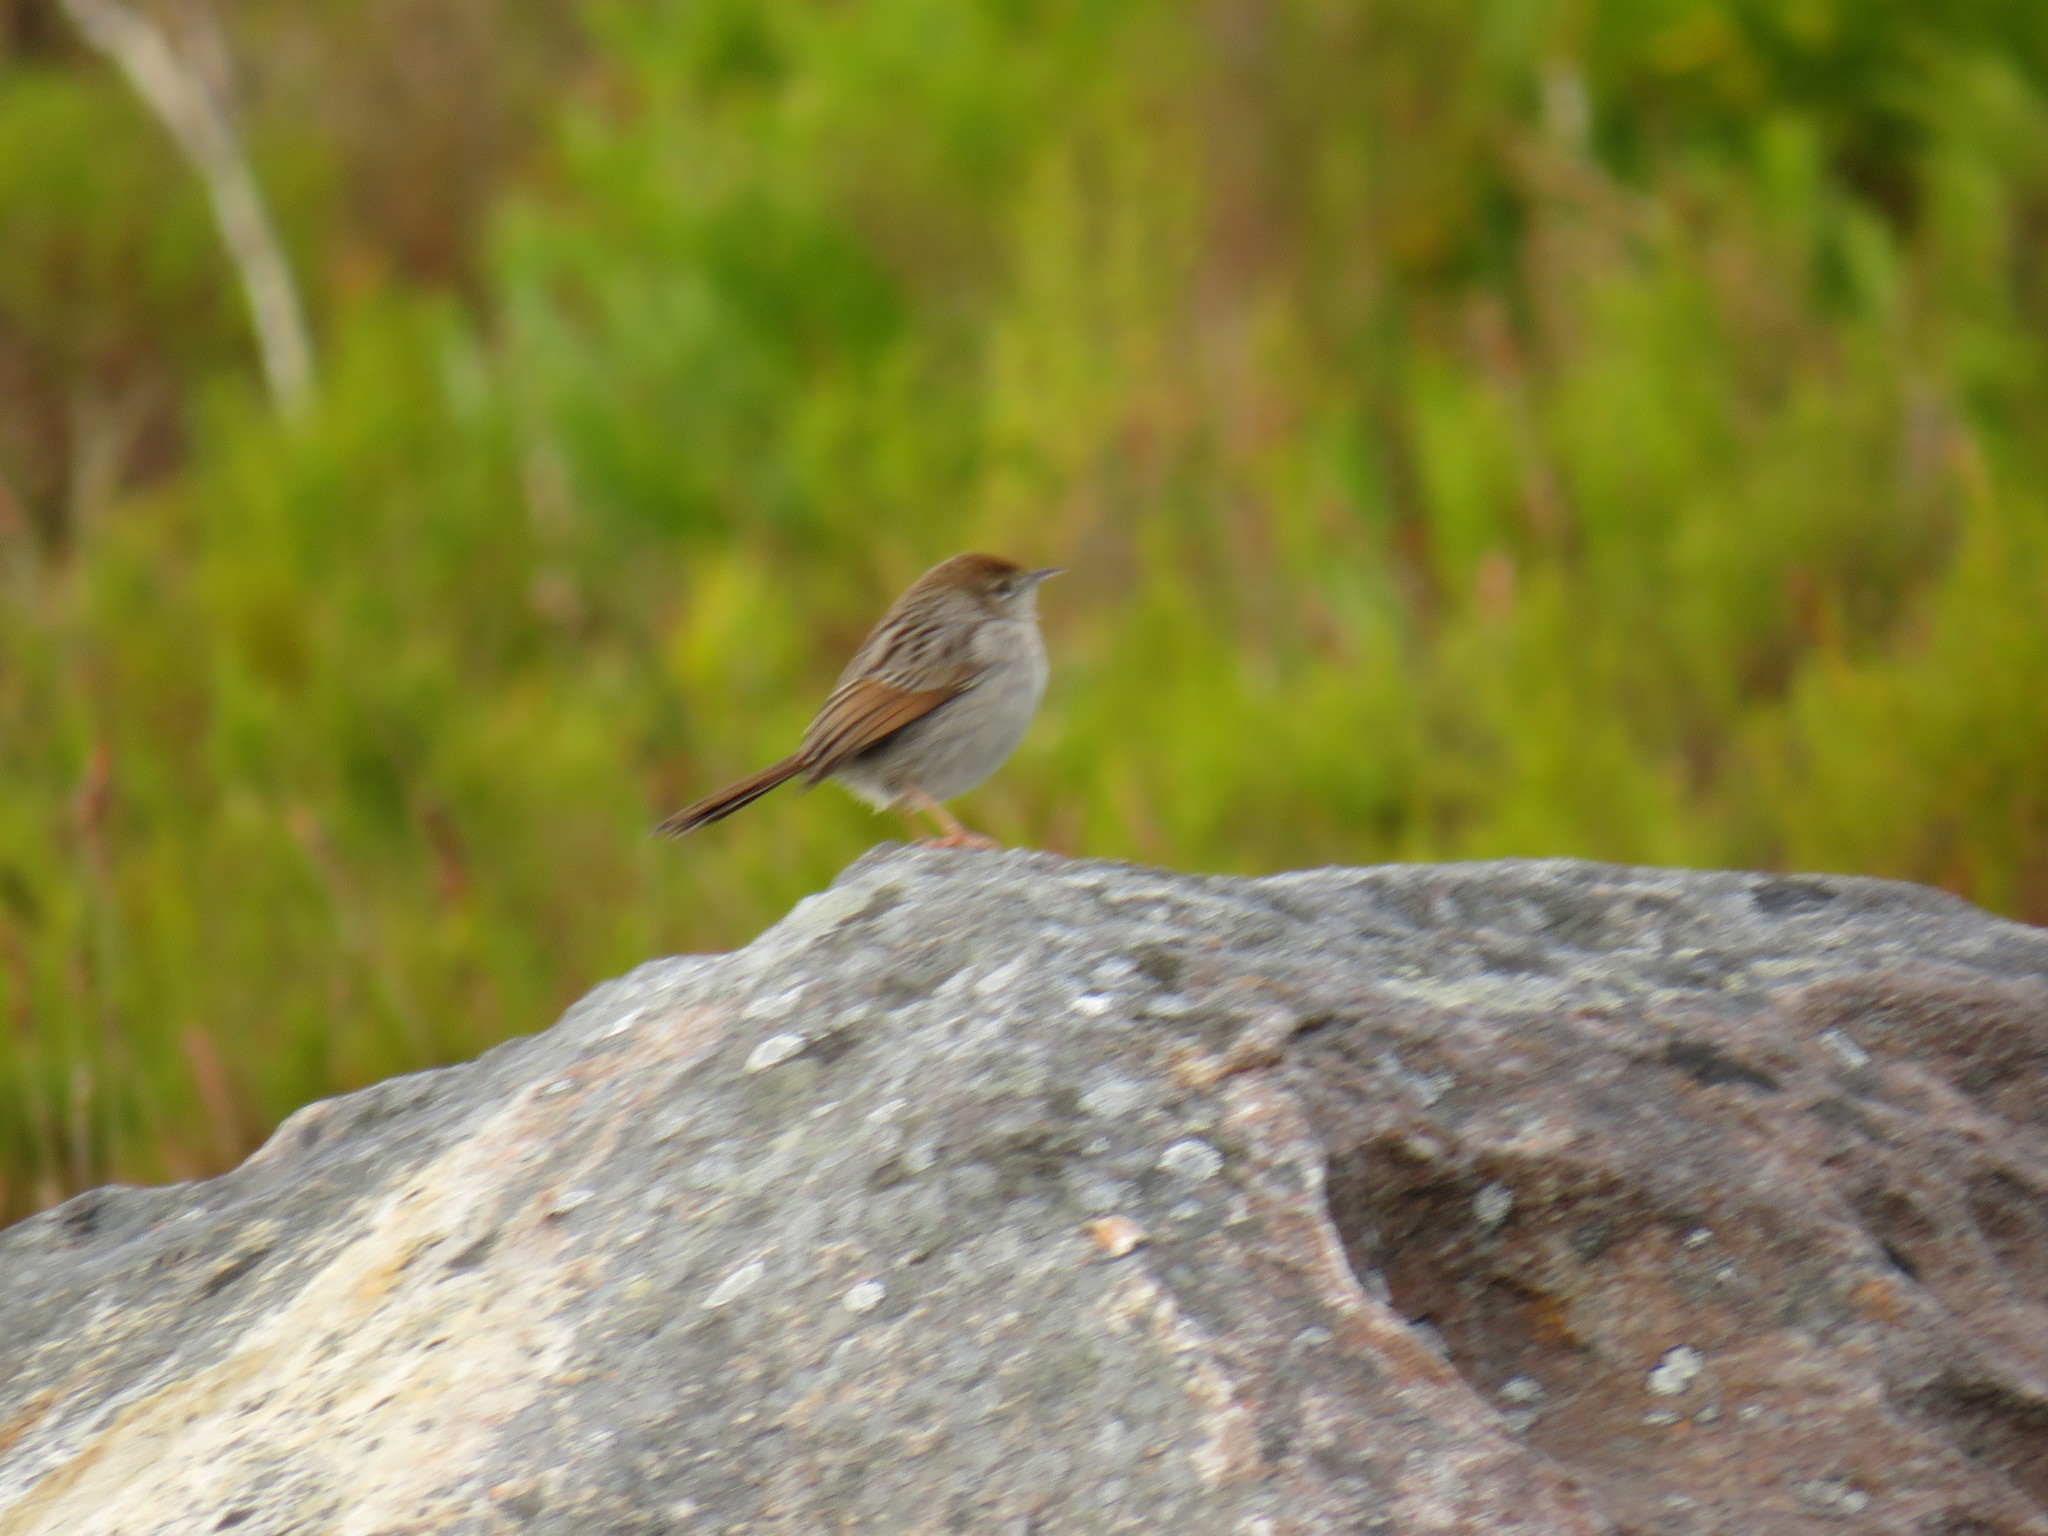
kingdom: Animalia
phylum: Chordata
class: Aves
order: Passeriformes
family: Cisticolidae
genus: Cisticola
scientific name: Cisticola fulvicapilla
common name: Neddicky
